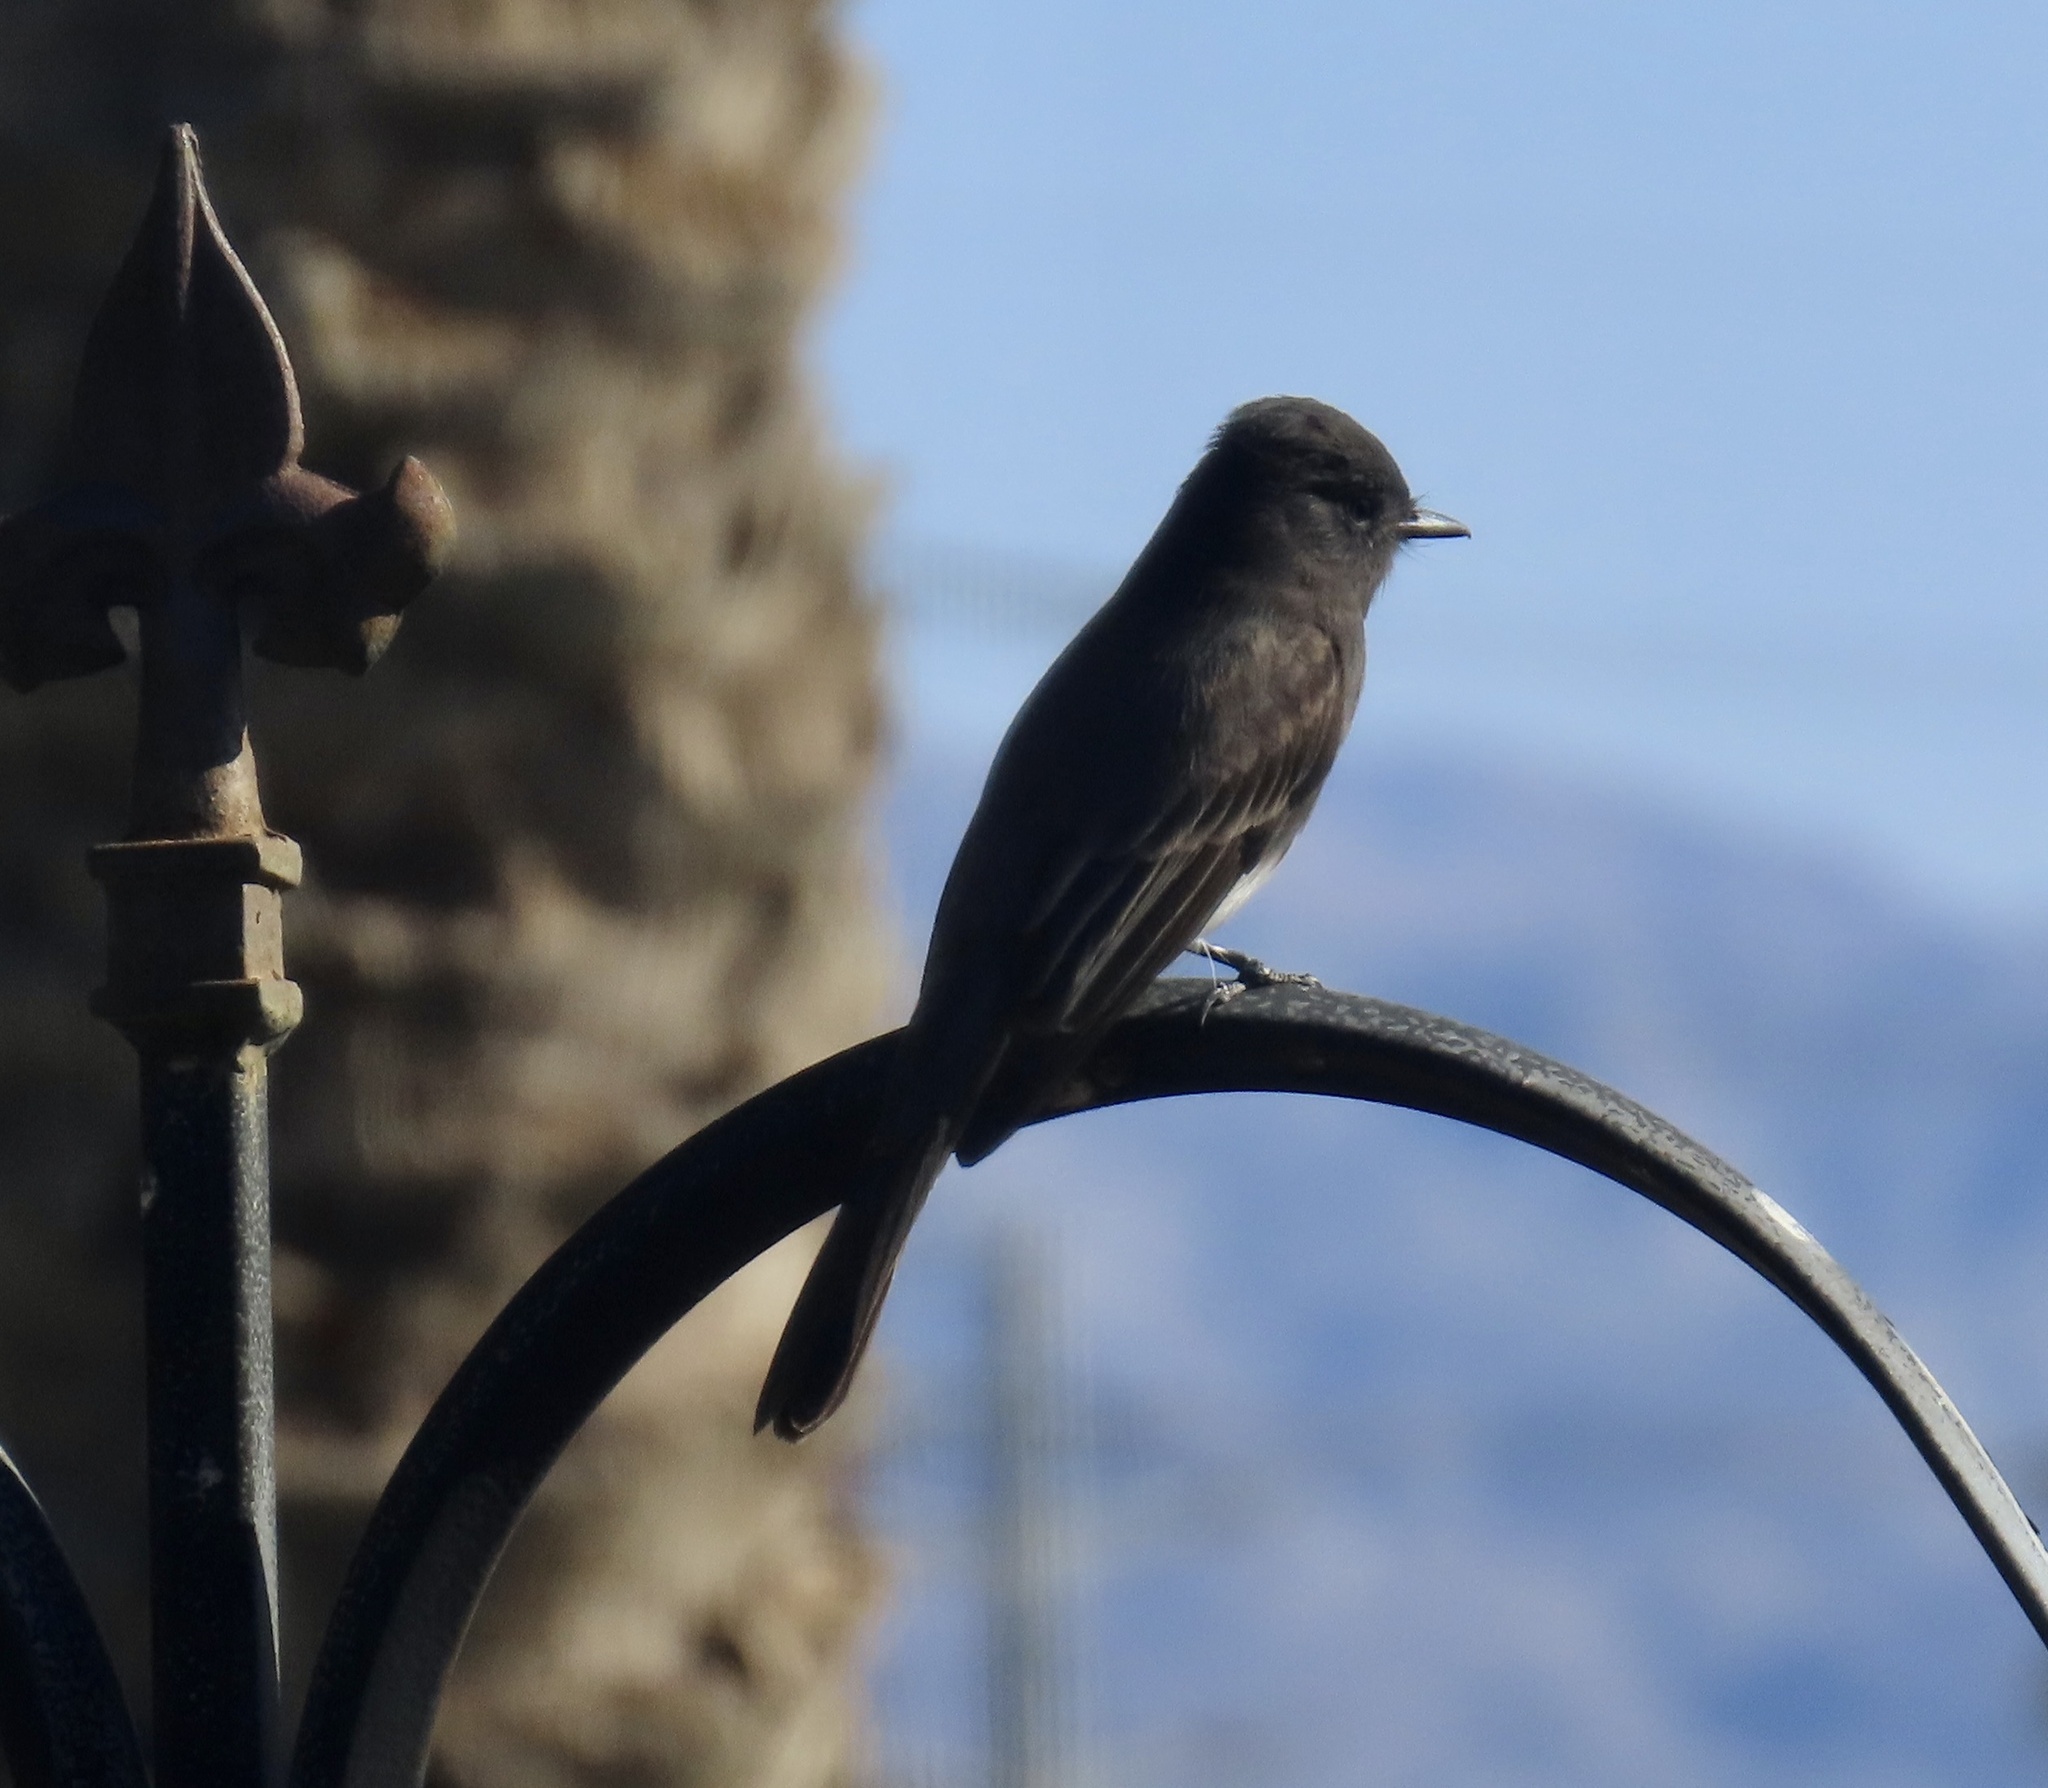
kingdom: Animalia
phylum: Chordata
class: Aves
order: Passeriformes
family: Tyrannidae
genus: Sayornis
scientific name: Sayornis nigricans
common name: Black phoebe
